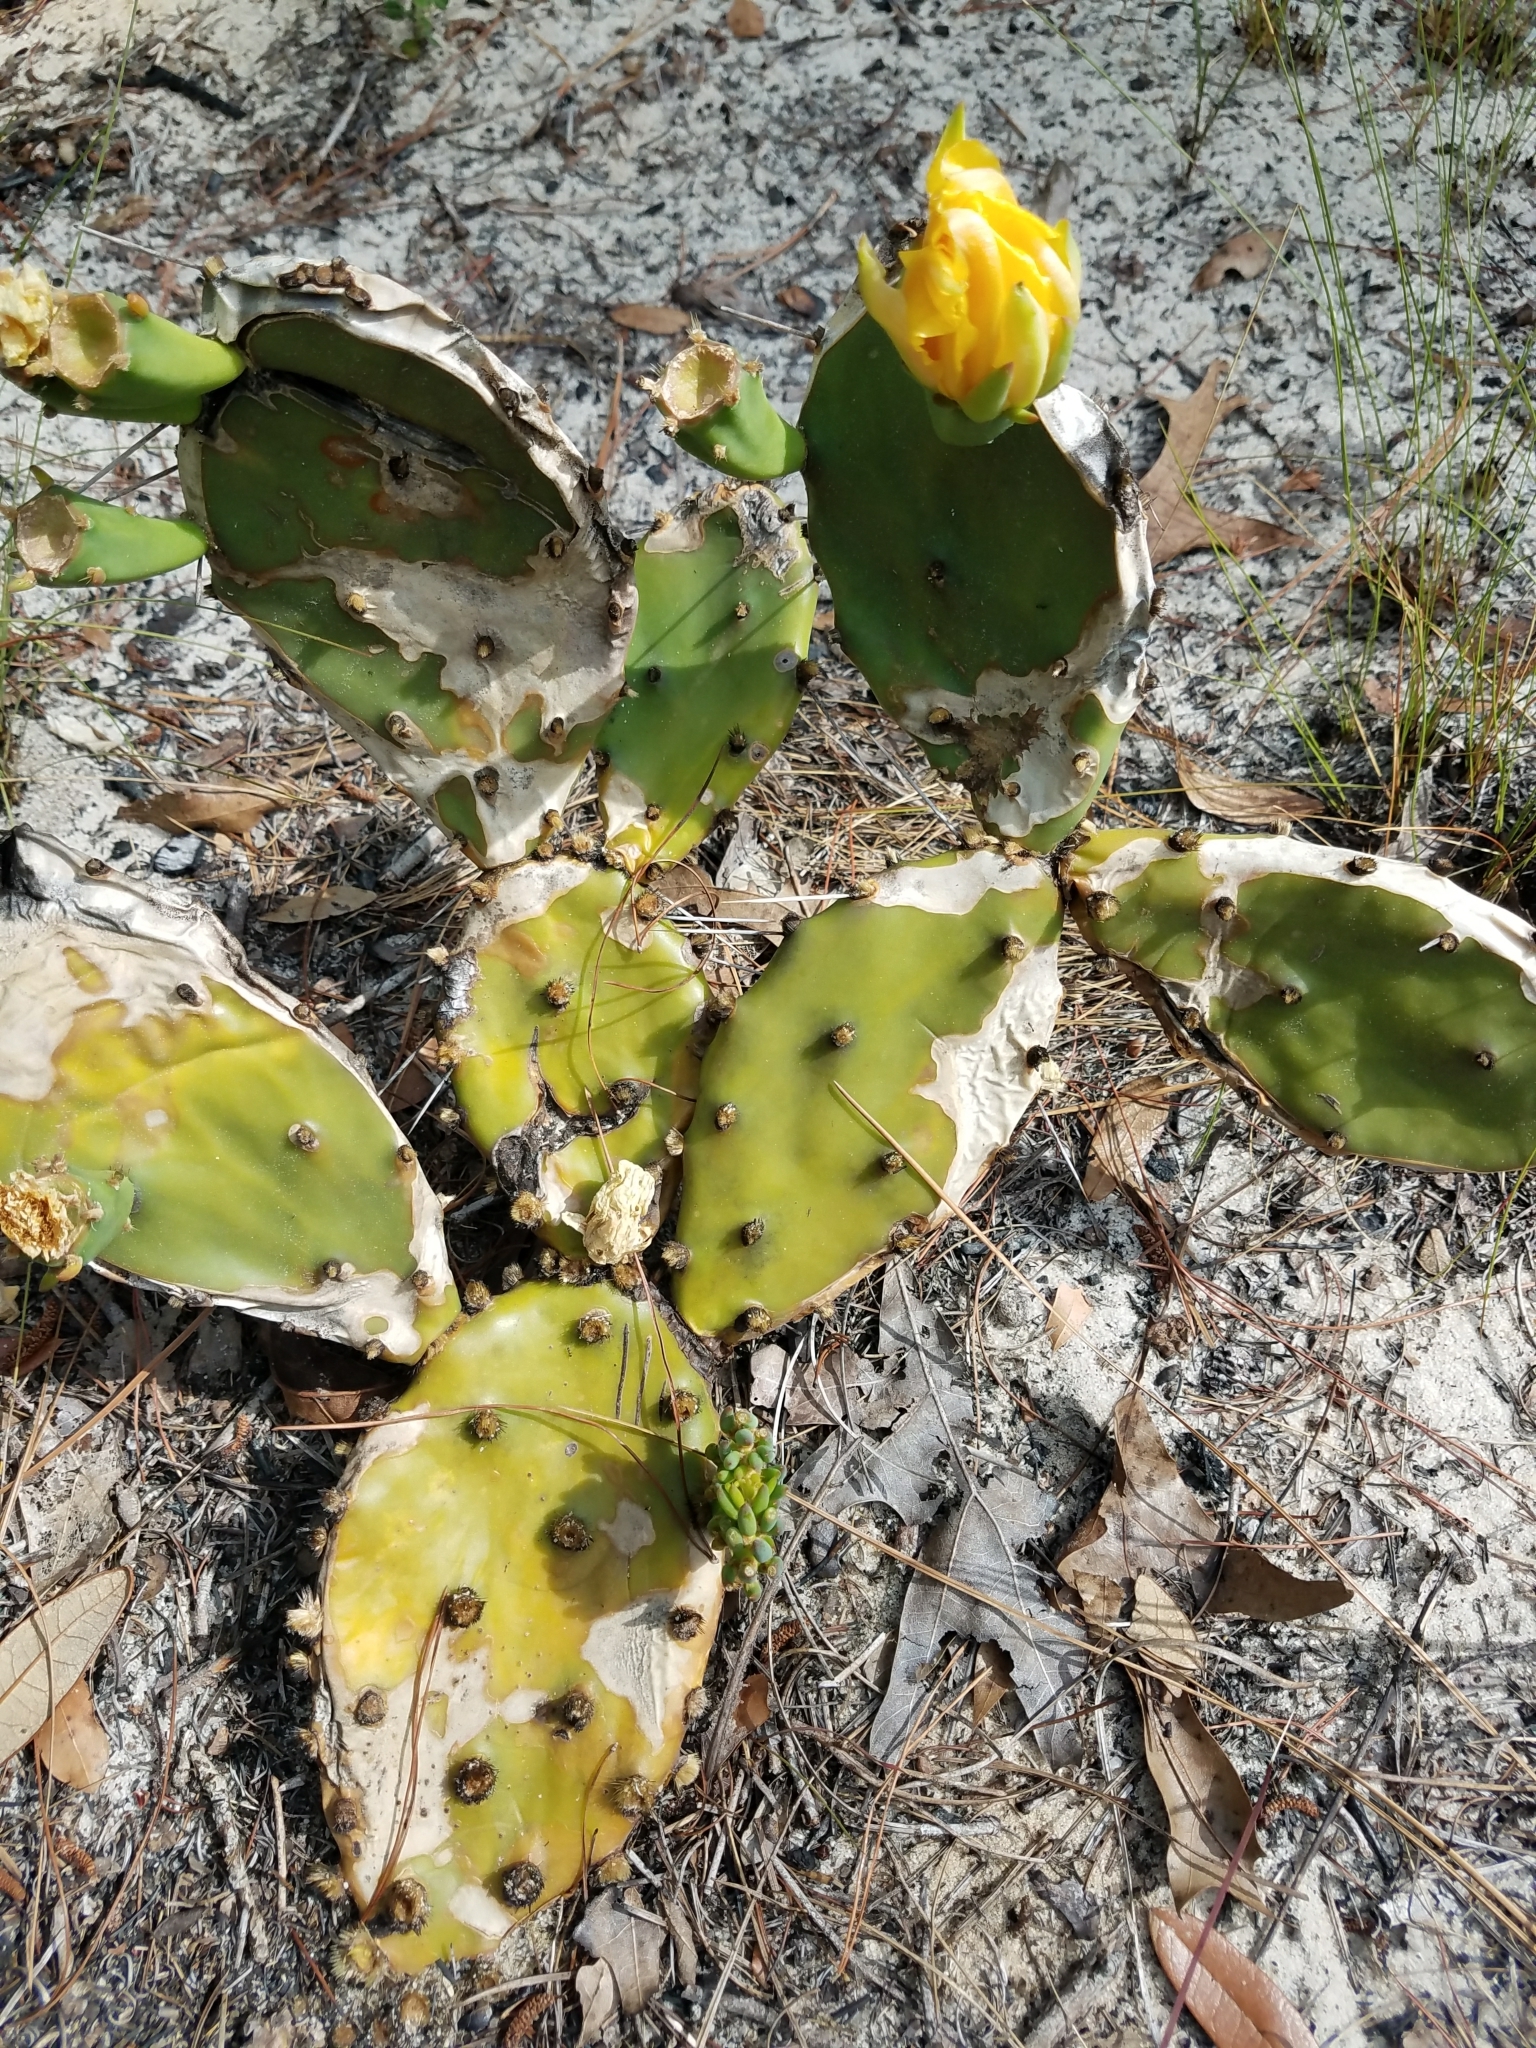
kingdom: Plantae
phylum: Tracheophyta
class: Magnoliopsida
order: Caryophyllales
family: Cactaceae
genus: Opuntia
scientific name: Opuntia austrina
